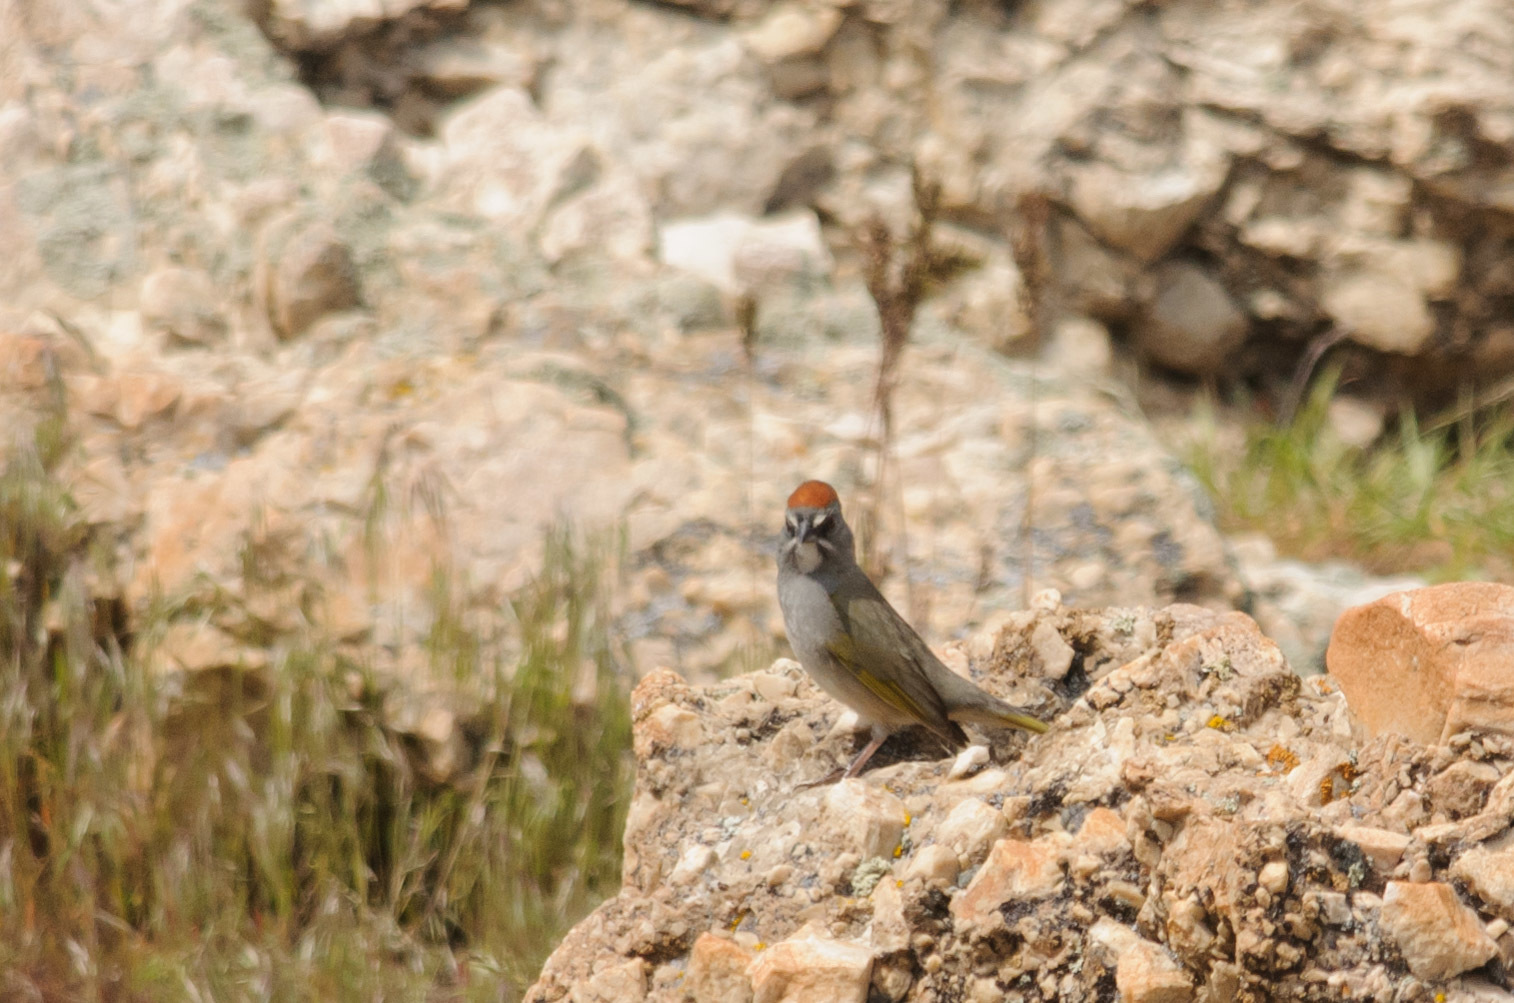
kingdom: Animalia
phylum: Chordata
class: Aves
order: Passeriformes
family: Passerellidae
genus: Pipilo
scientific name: Pipilo chlorurus
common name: Green-tailed towhee
